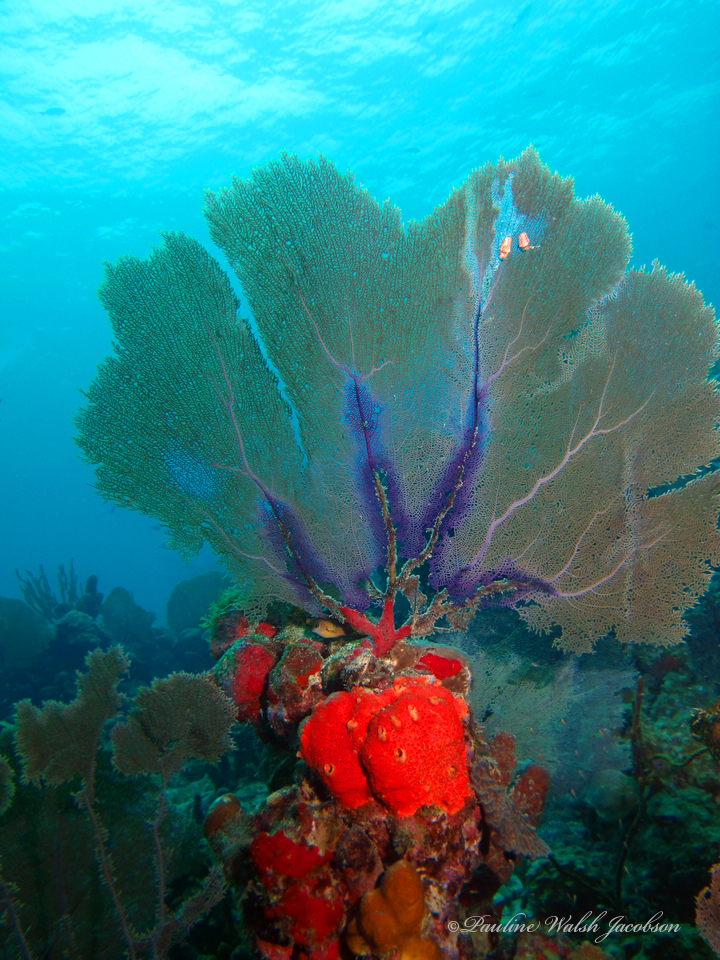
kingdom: Animalia
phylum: Cnidaria
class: Anthozoa
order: Malacalcyonacea
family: Gorgoniidae
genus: Gorgonia
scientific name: Gorgonia ventalina
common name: Common sea fan
